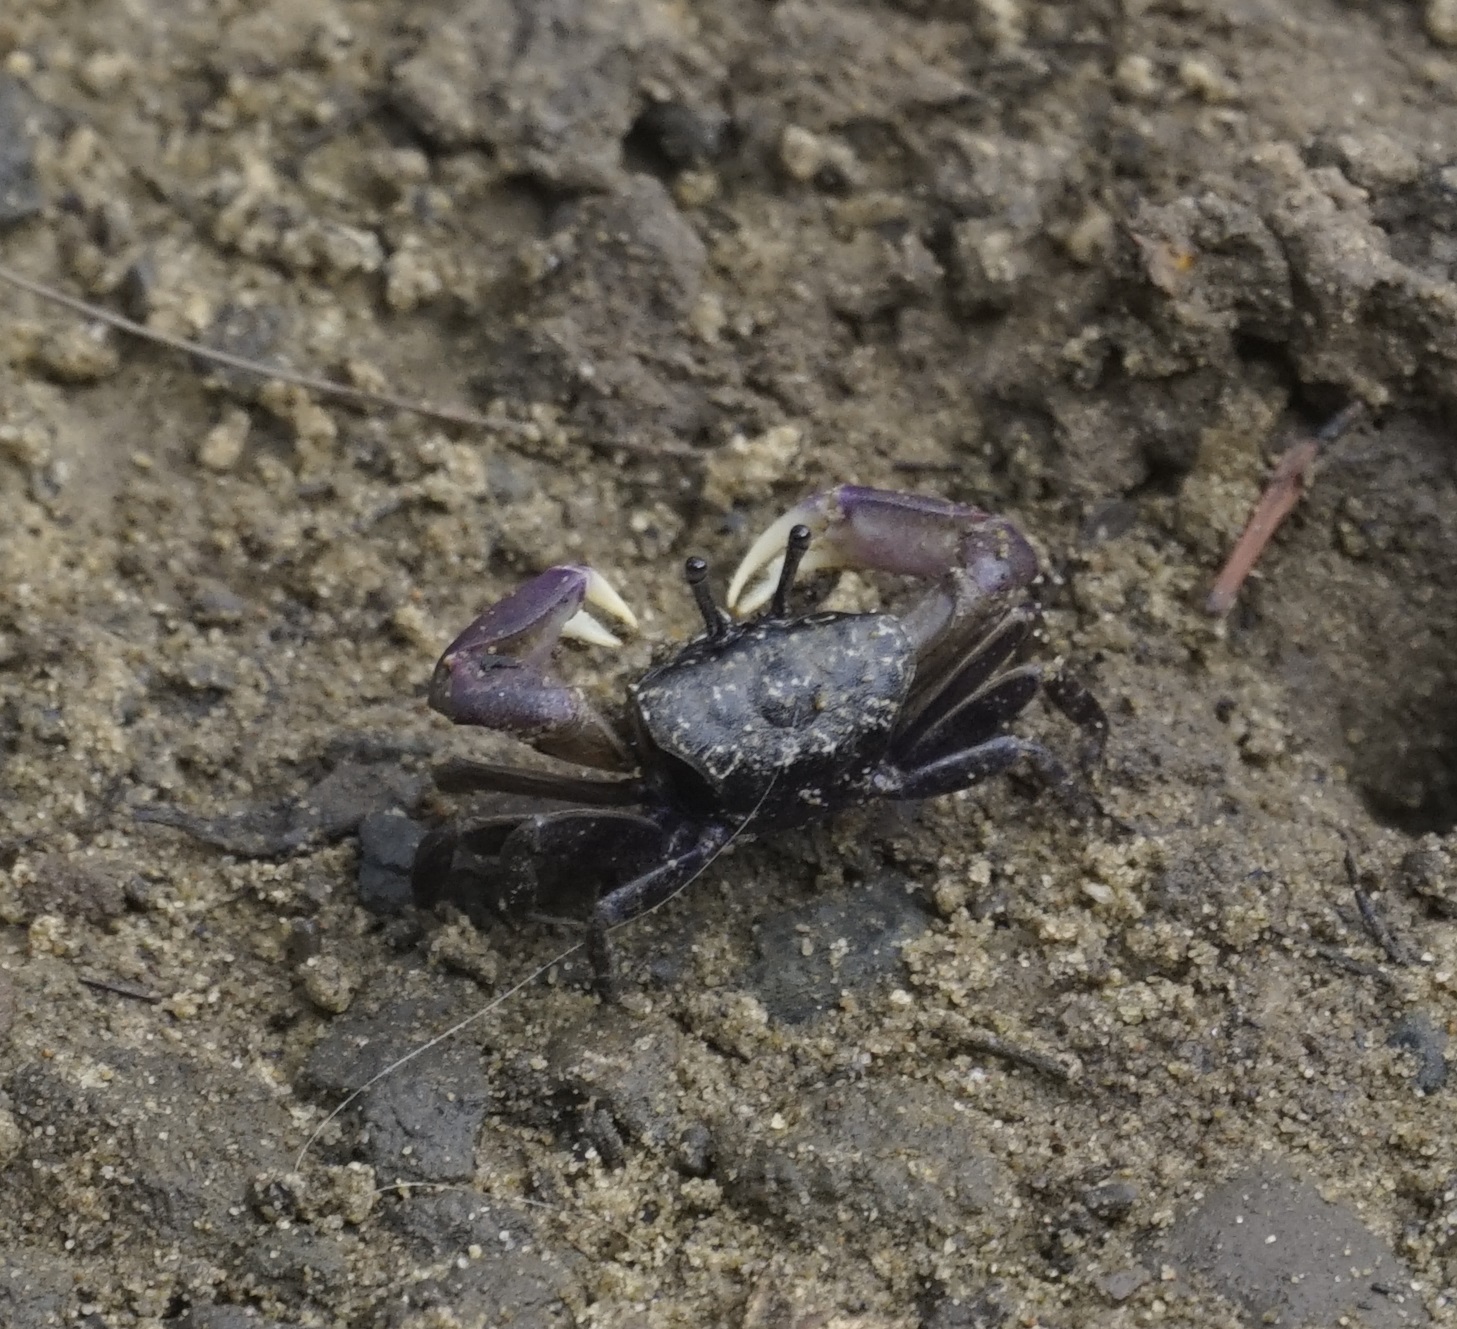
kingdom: Animalia
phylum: Arthropoda
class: Malacostraca
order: Decapoda
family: Heloeciidae
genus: Heloecius
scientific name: Heloecius cordiformis
